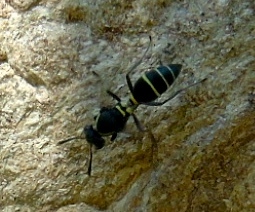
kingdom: Animalia
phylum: Arthropoda
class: Insecta
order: Hymenoptera
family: Vespidae
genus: Myrapetra
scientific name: Myrapetra
